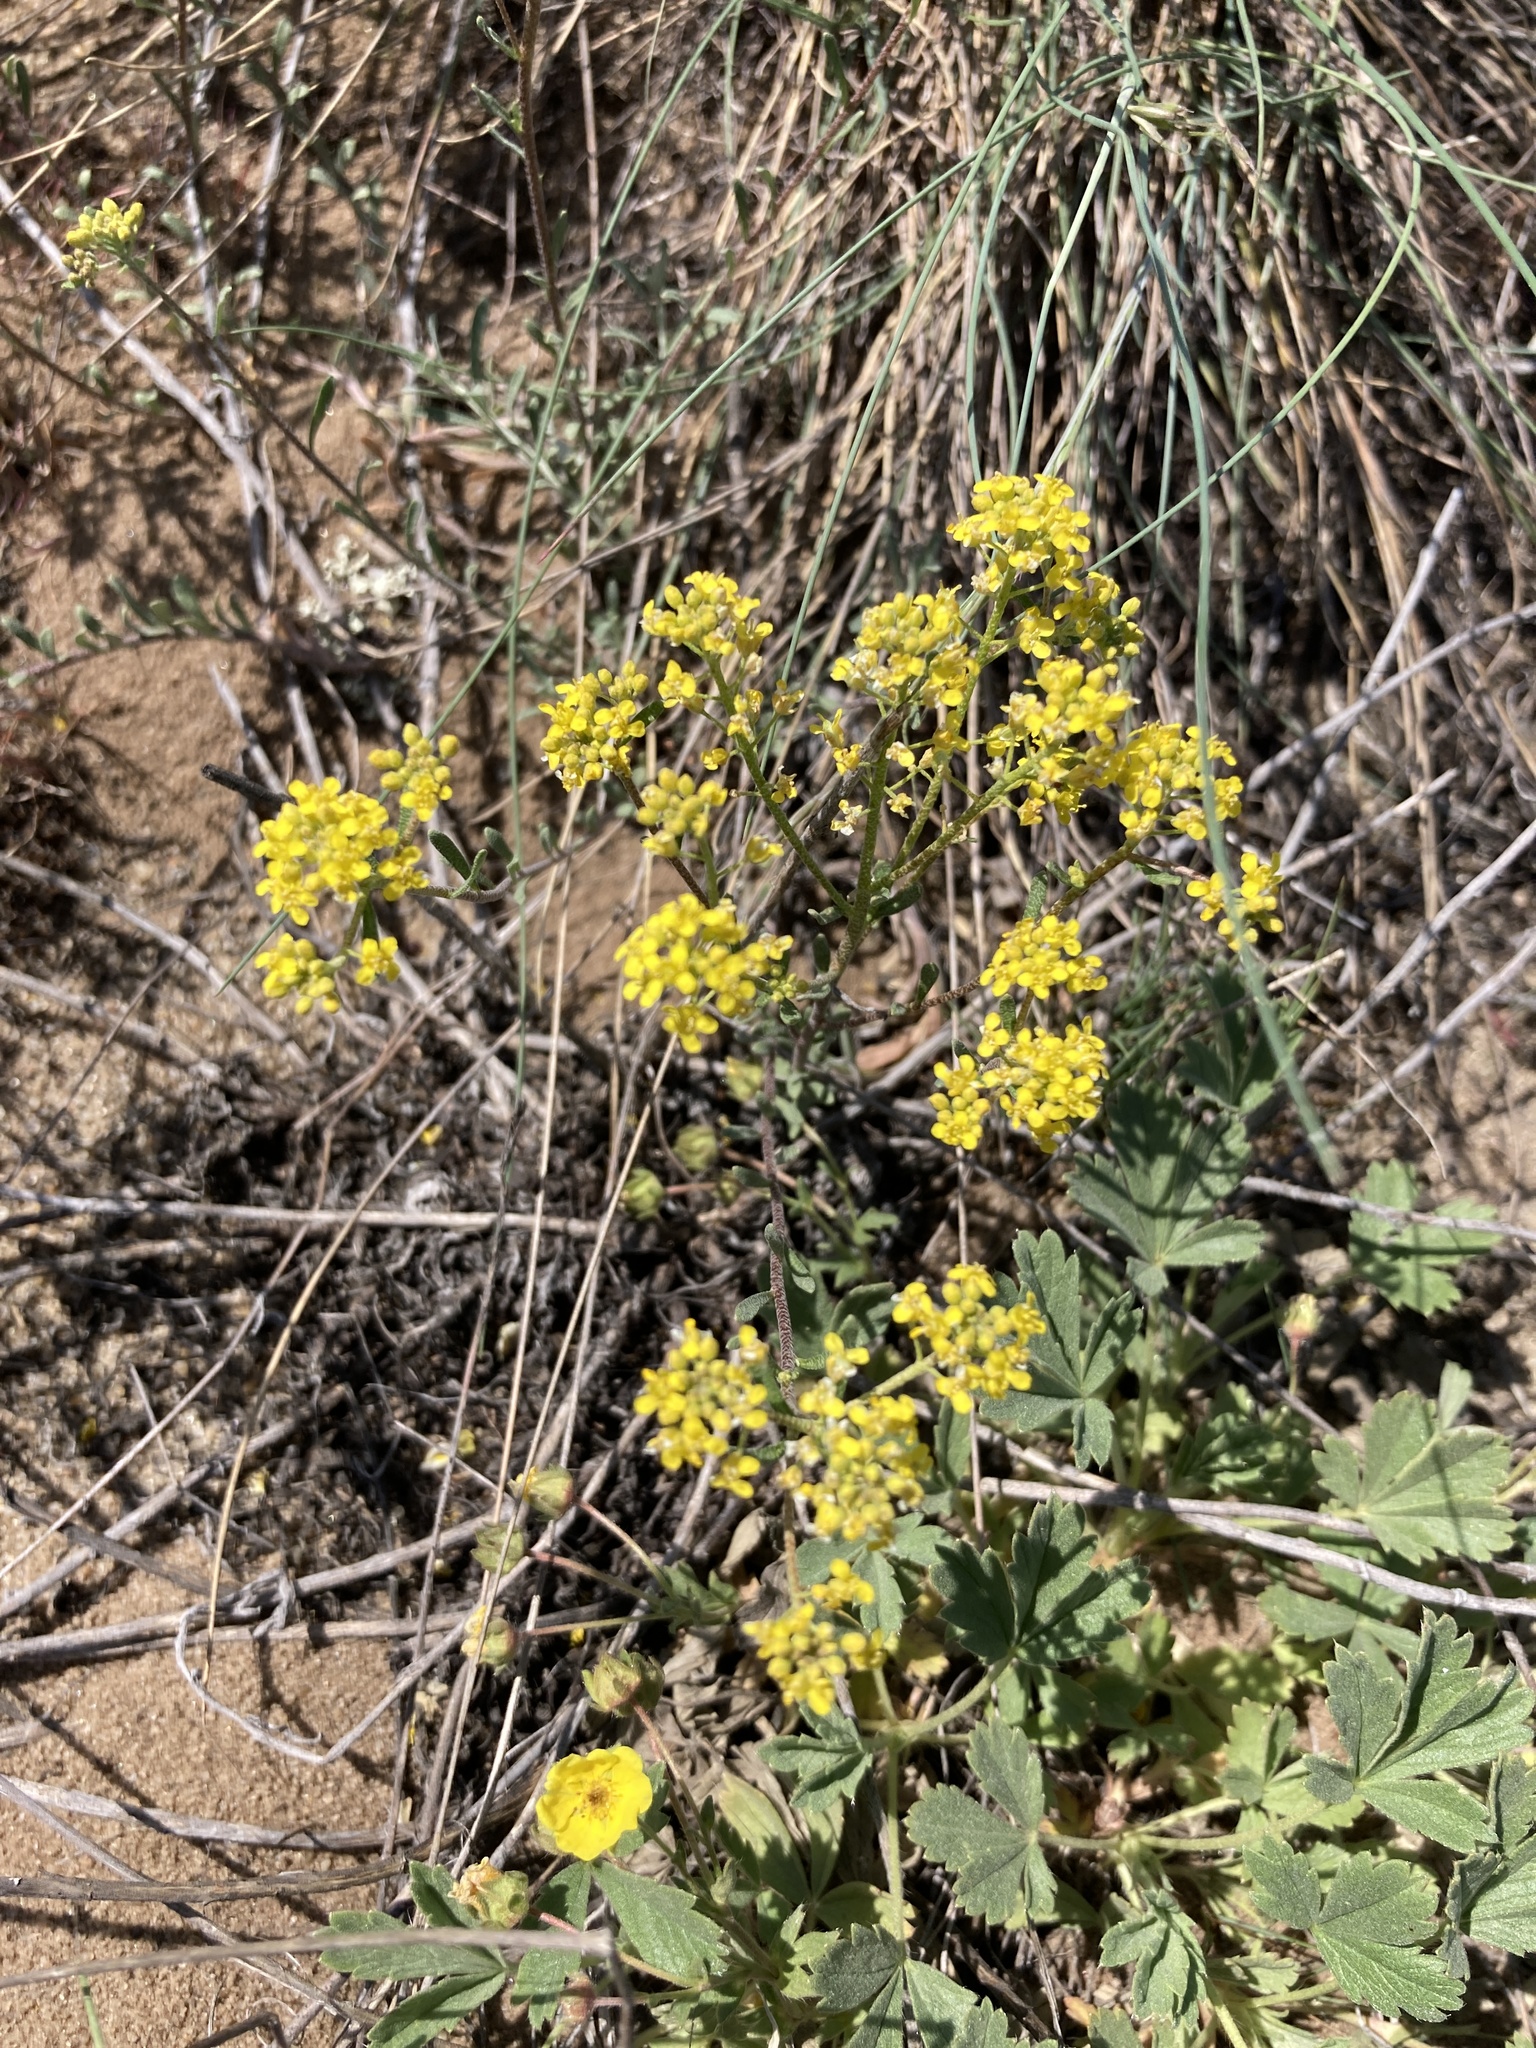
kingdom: Plantae
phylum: Tracheophyta
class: Magnoliopsida
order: Brassicales
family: Brassicaceae
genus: Odontarrhena
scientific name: Odontarrhena tortuosa
